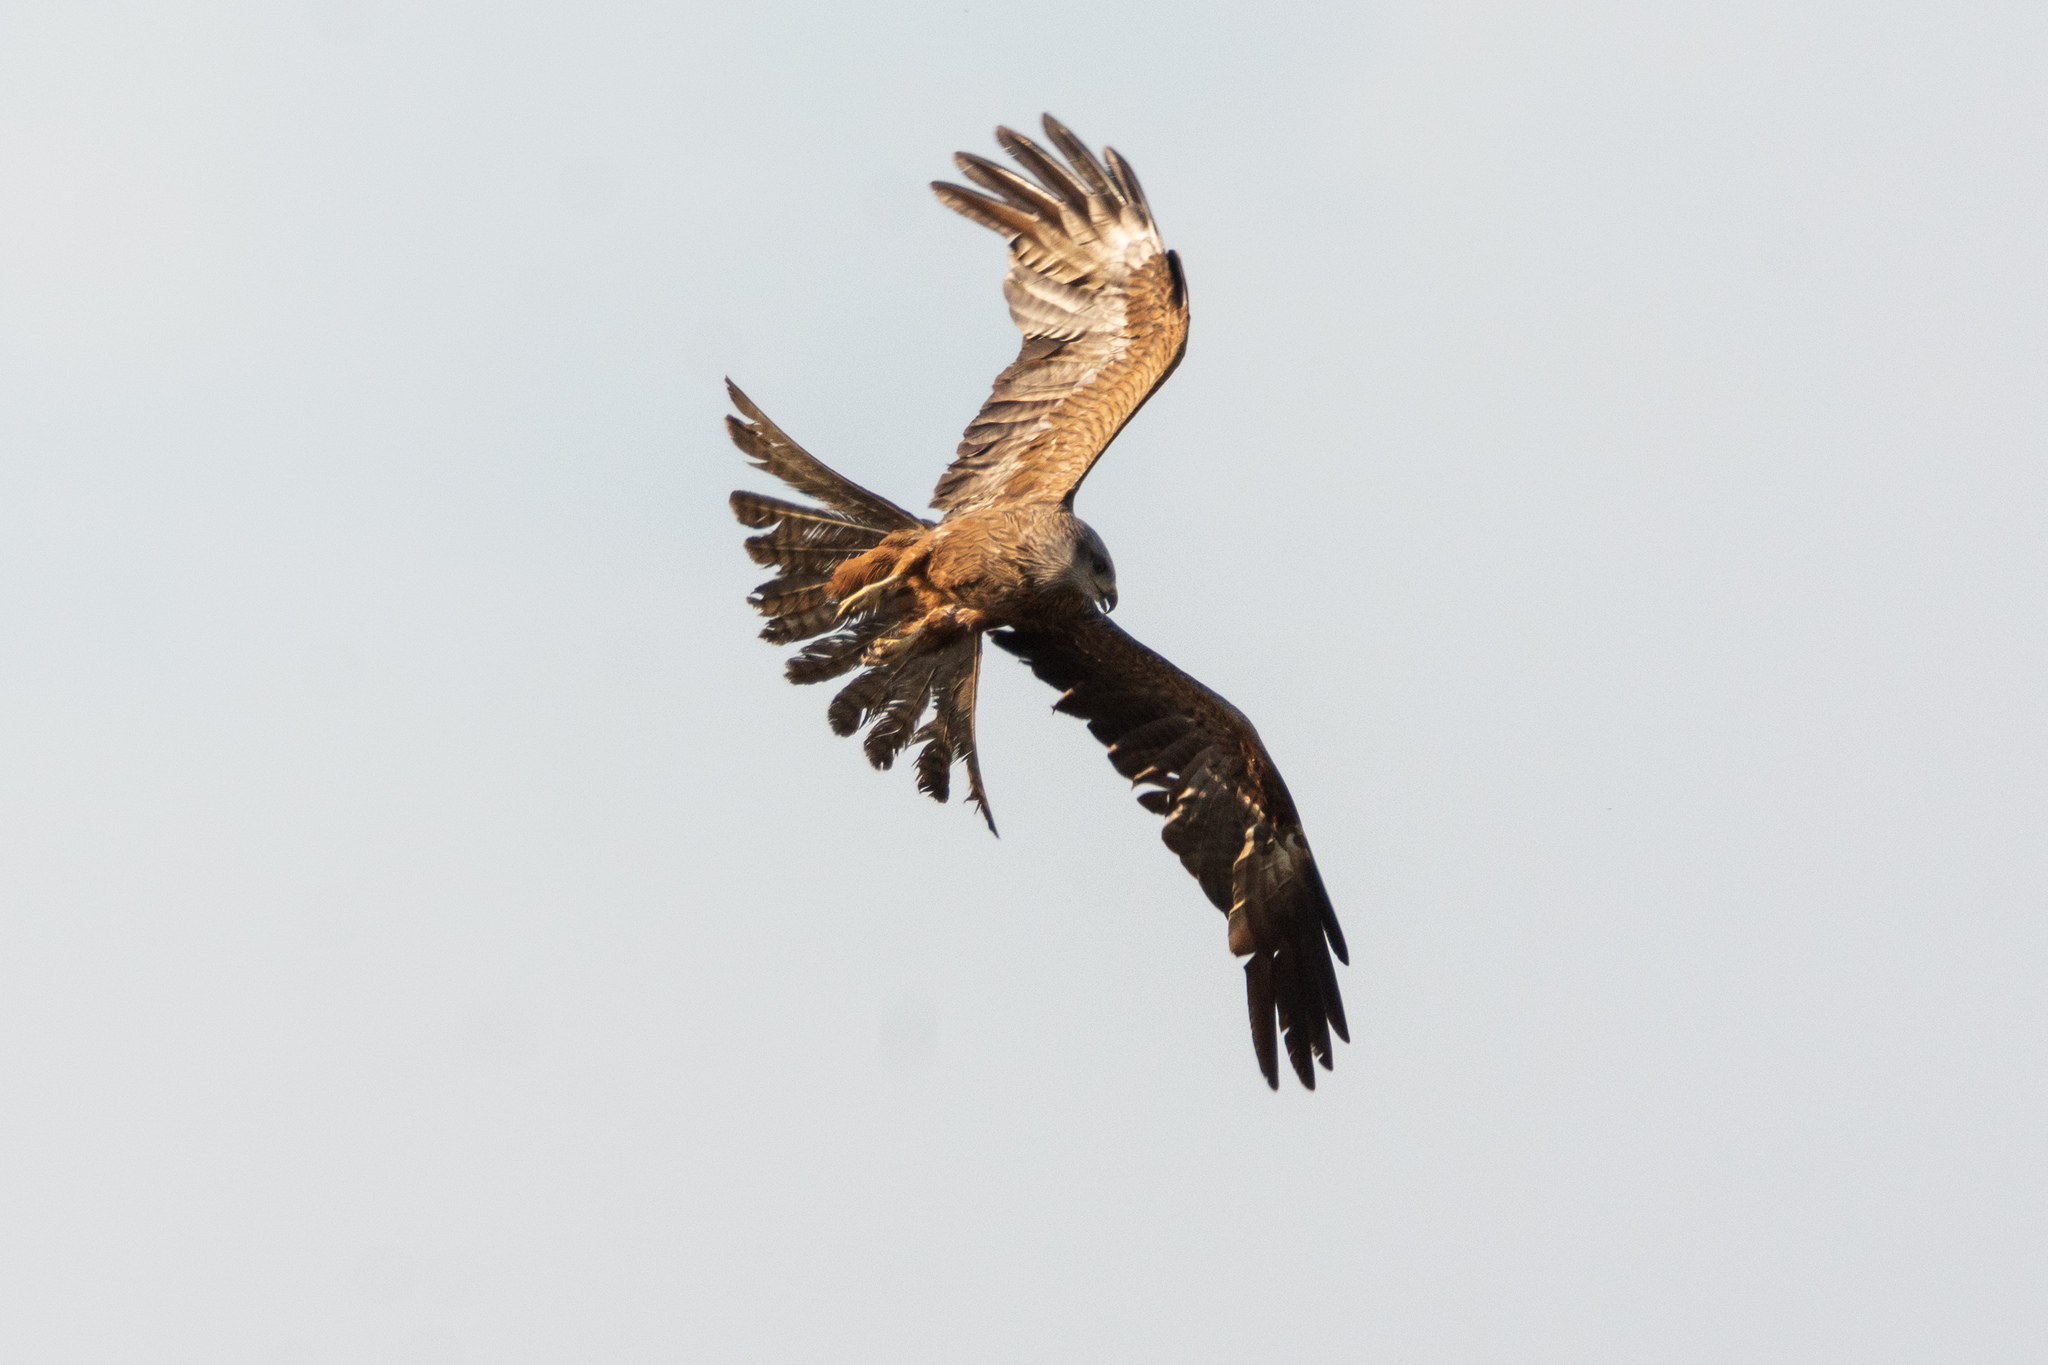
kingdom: Animalia
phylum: Chordata
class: Aves
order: Accipitriformes
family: Accipitridae
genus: Milvus
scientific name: Milvus migrans
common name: Black kite
